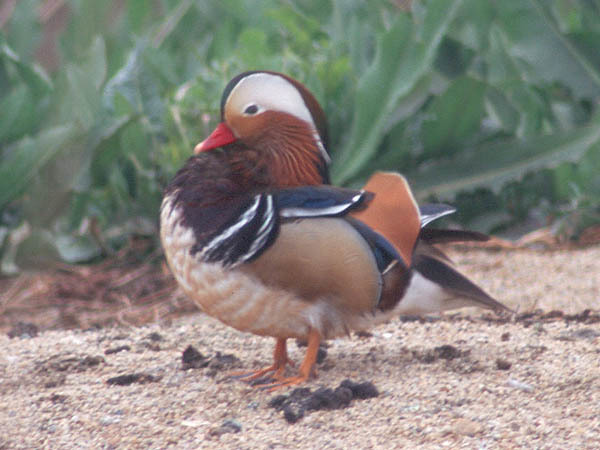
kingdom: Animalia
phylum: Chordata
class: Aves
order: Anseriformes
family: Anatidae
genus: Aix
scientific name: Aix galericulata
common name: Mandarin duck
